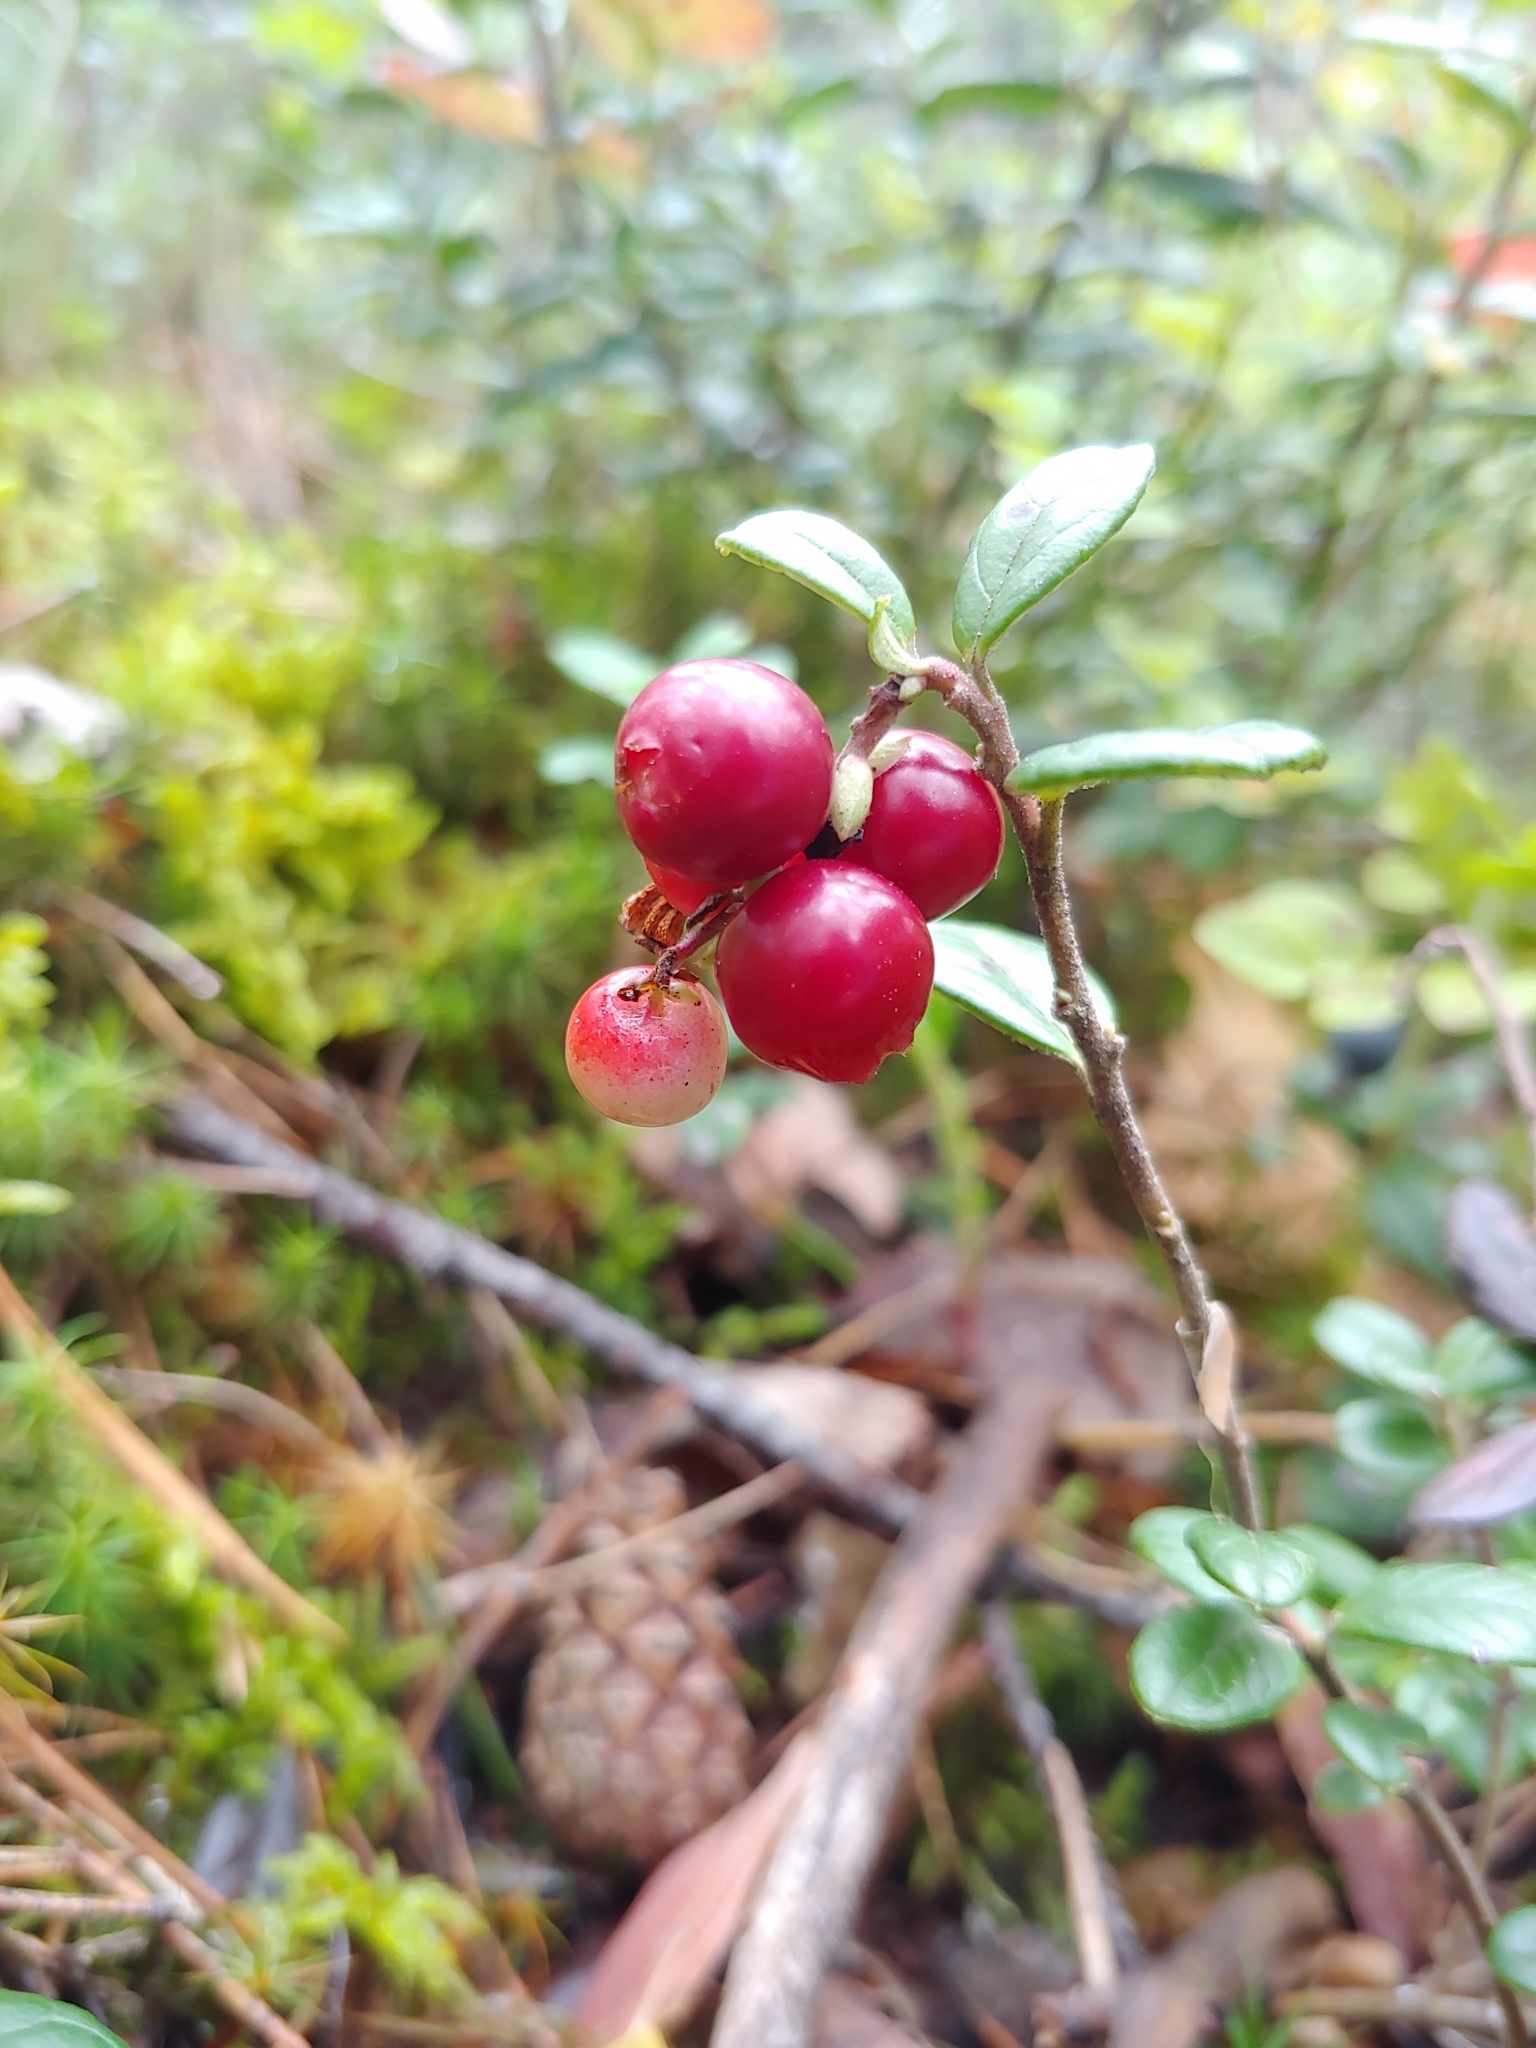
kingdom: Plantae
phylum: Tracheophyta
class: Magnoliopsida
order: Ericales
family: Ericaceae
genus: Vaccinium
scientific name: Vaccinium vitis-idaea
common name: Cowberry
